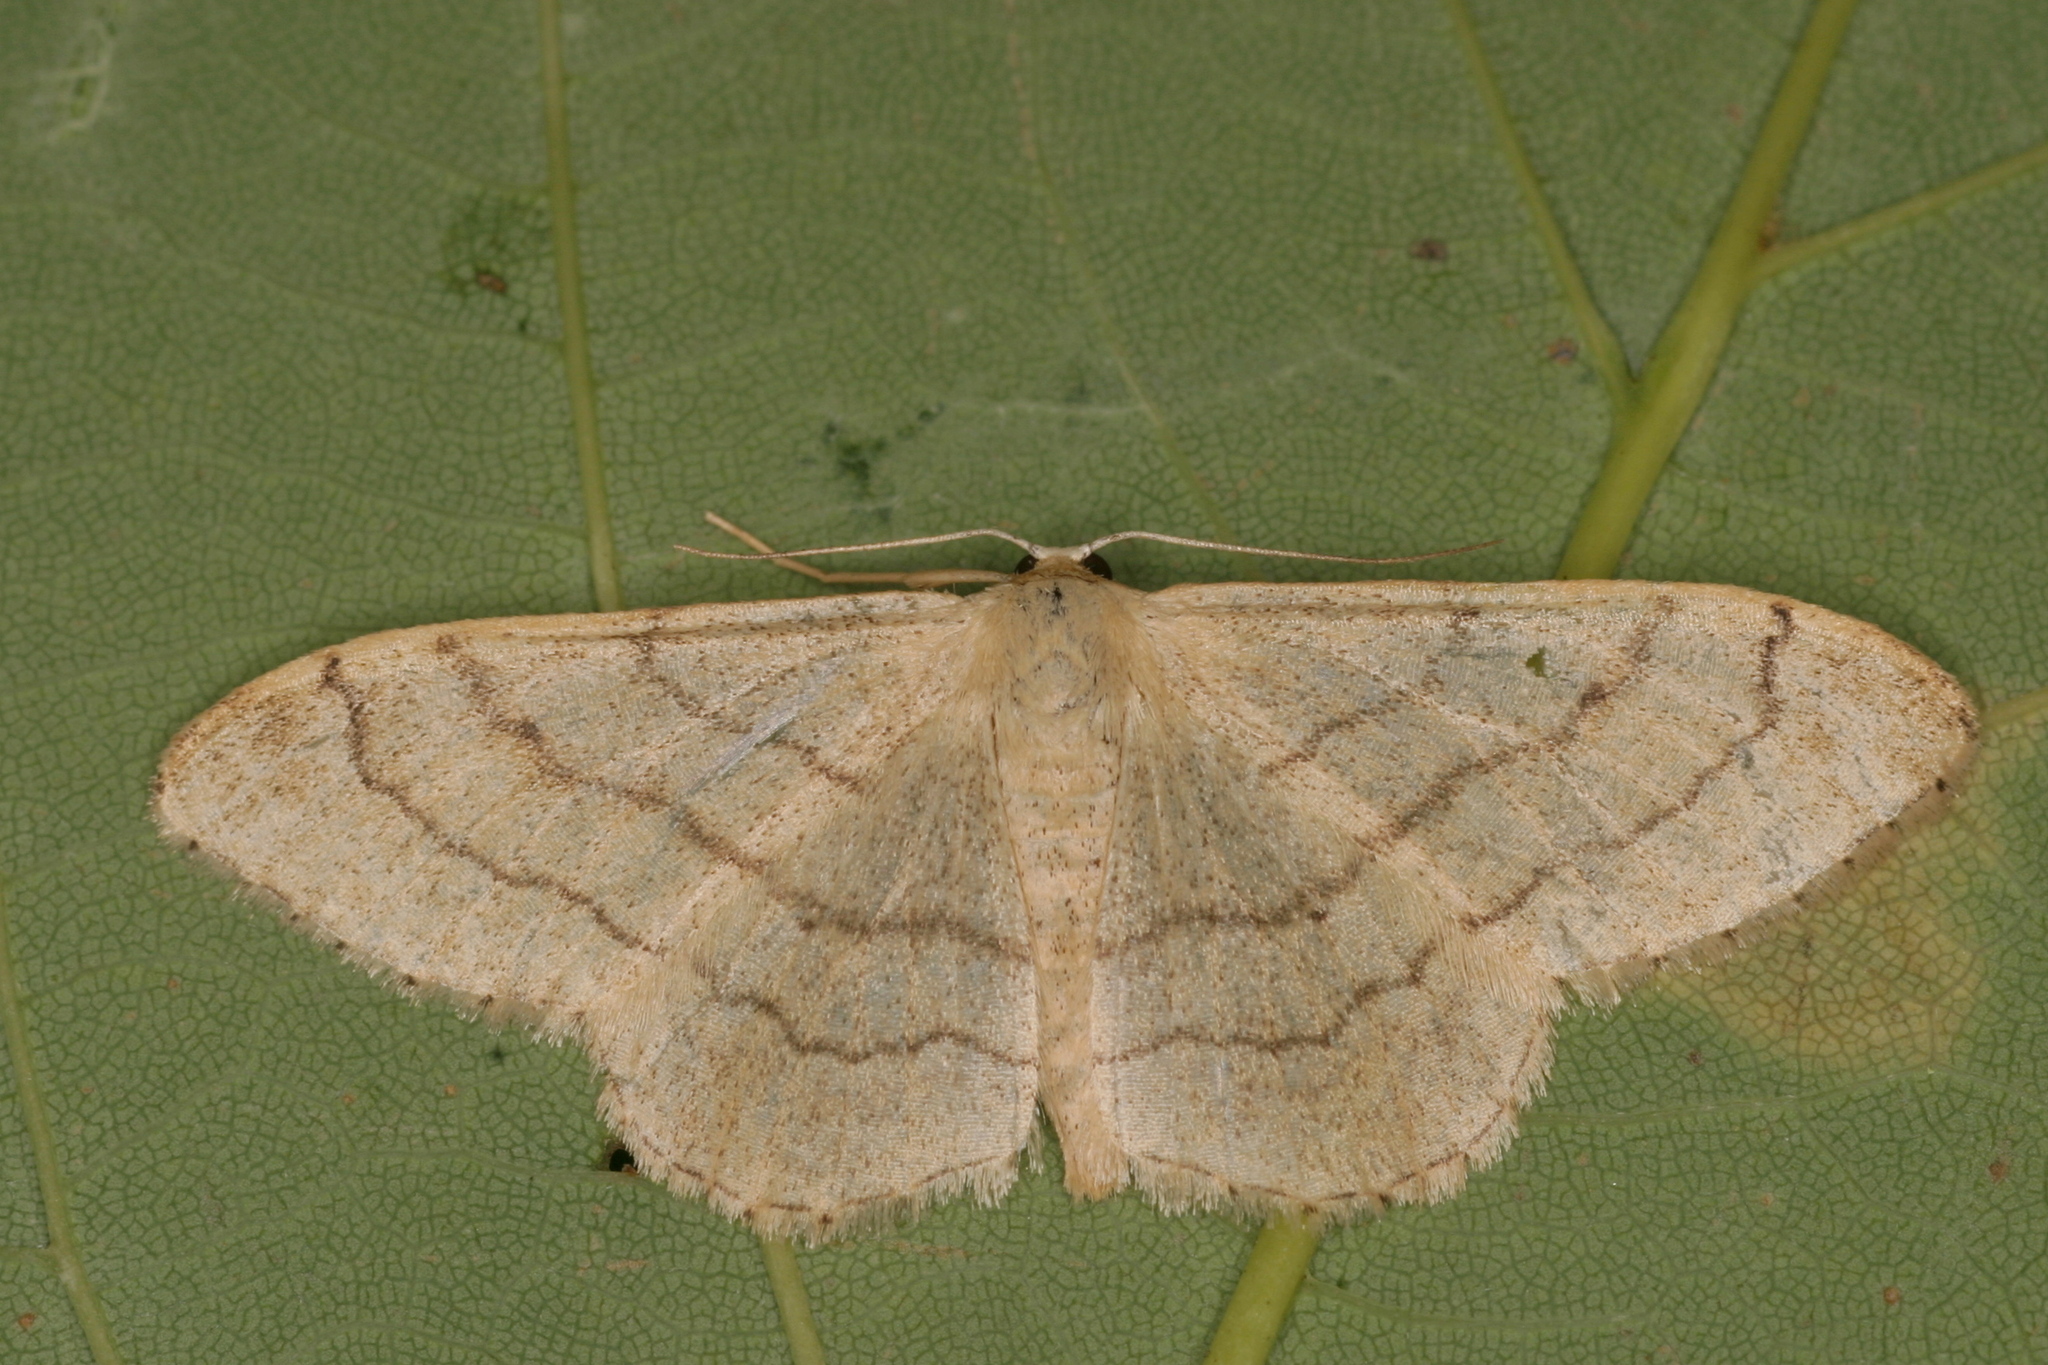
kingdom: Animalia
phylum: Arthropoda
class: Insecta
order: Lepidoptera
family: Geometridae
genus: Idaea
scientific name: Idaea aversata
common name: Riband wave
